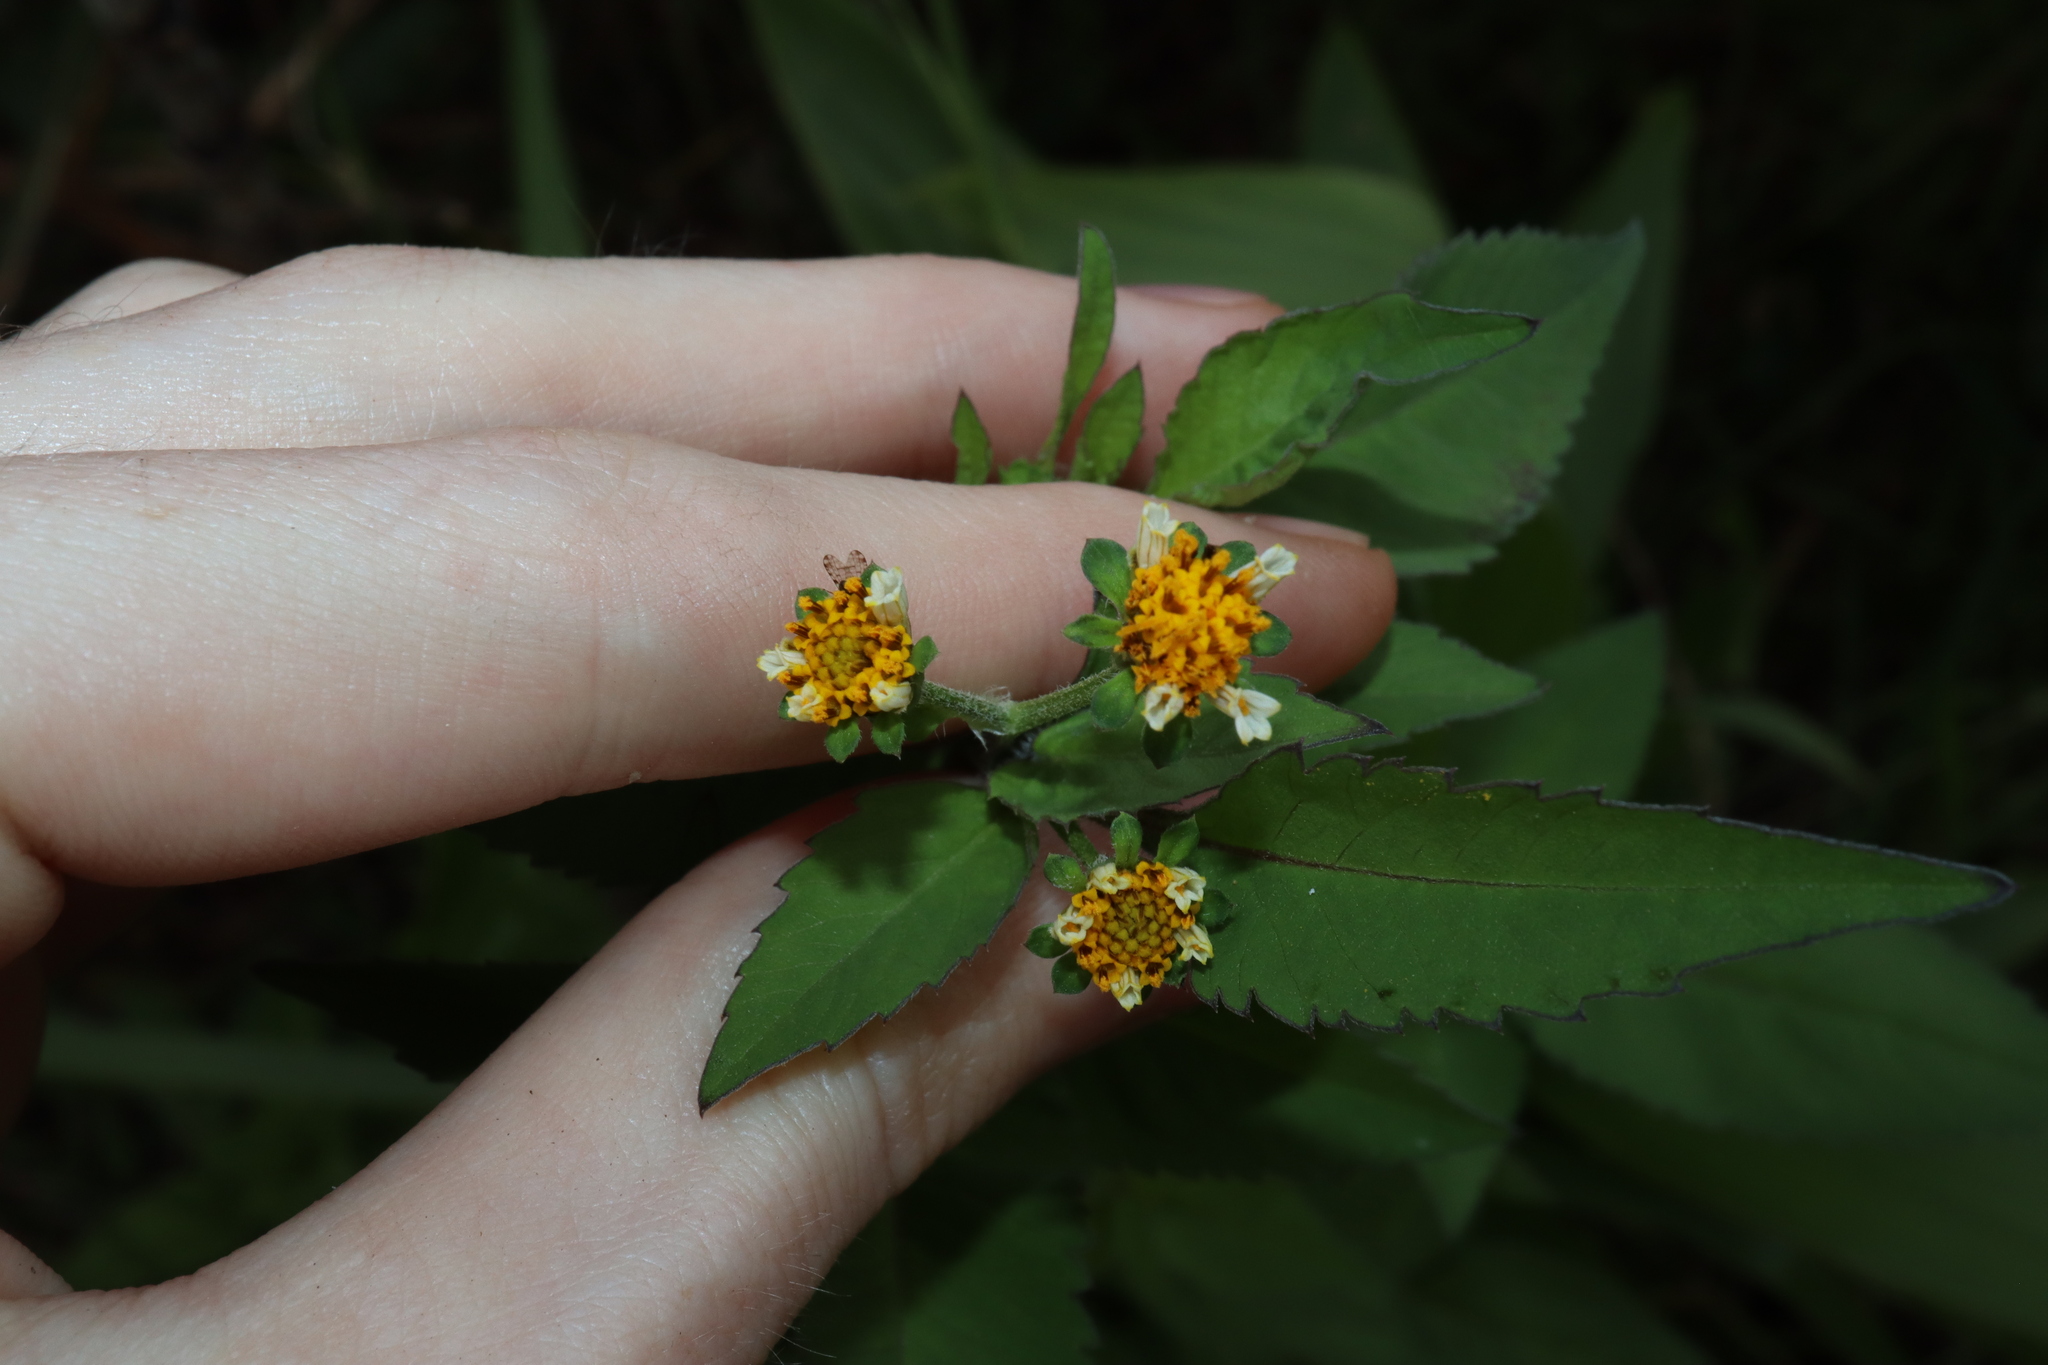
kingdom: Plantae
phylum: Tracheophyta
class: Magnoliopsida
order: Asterales
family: Asteraceae
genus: Bidens
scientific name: Bidens pilosa
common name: Black-jack
